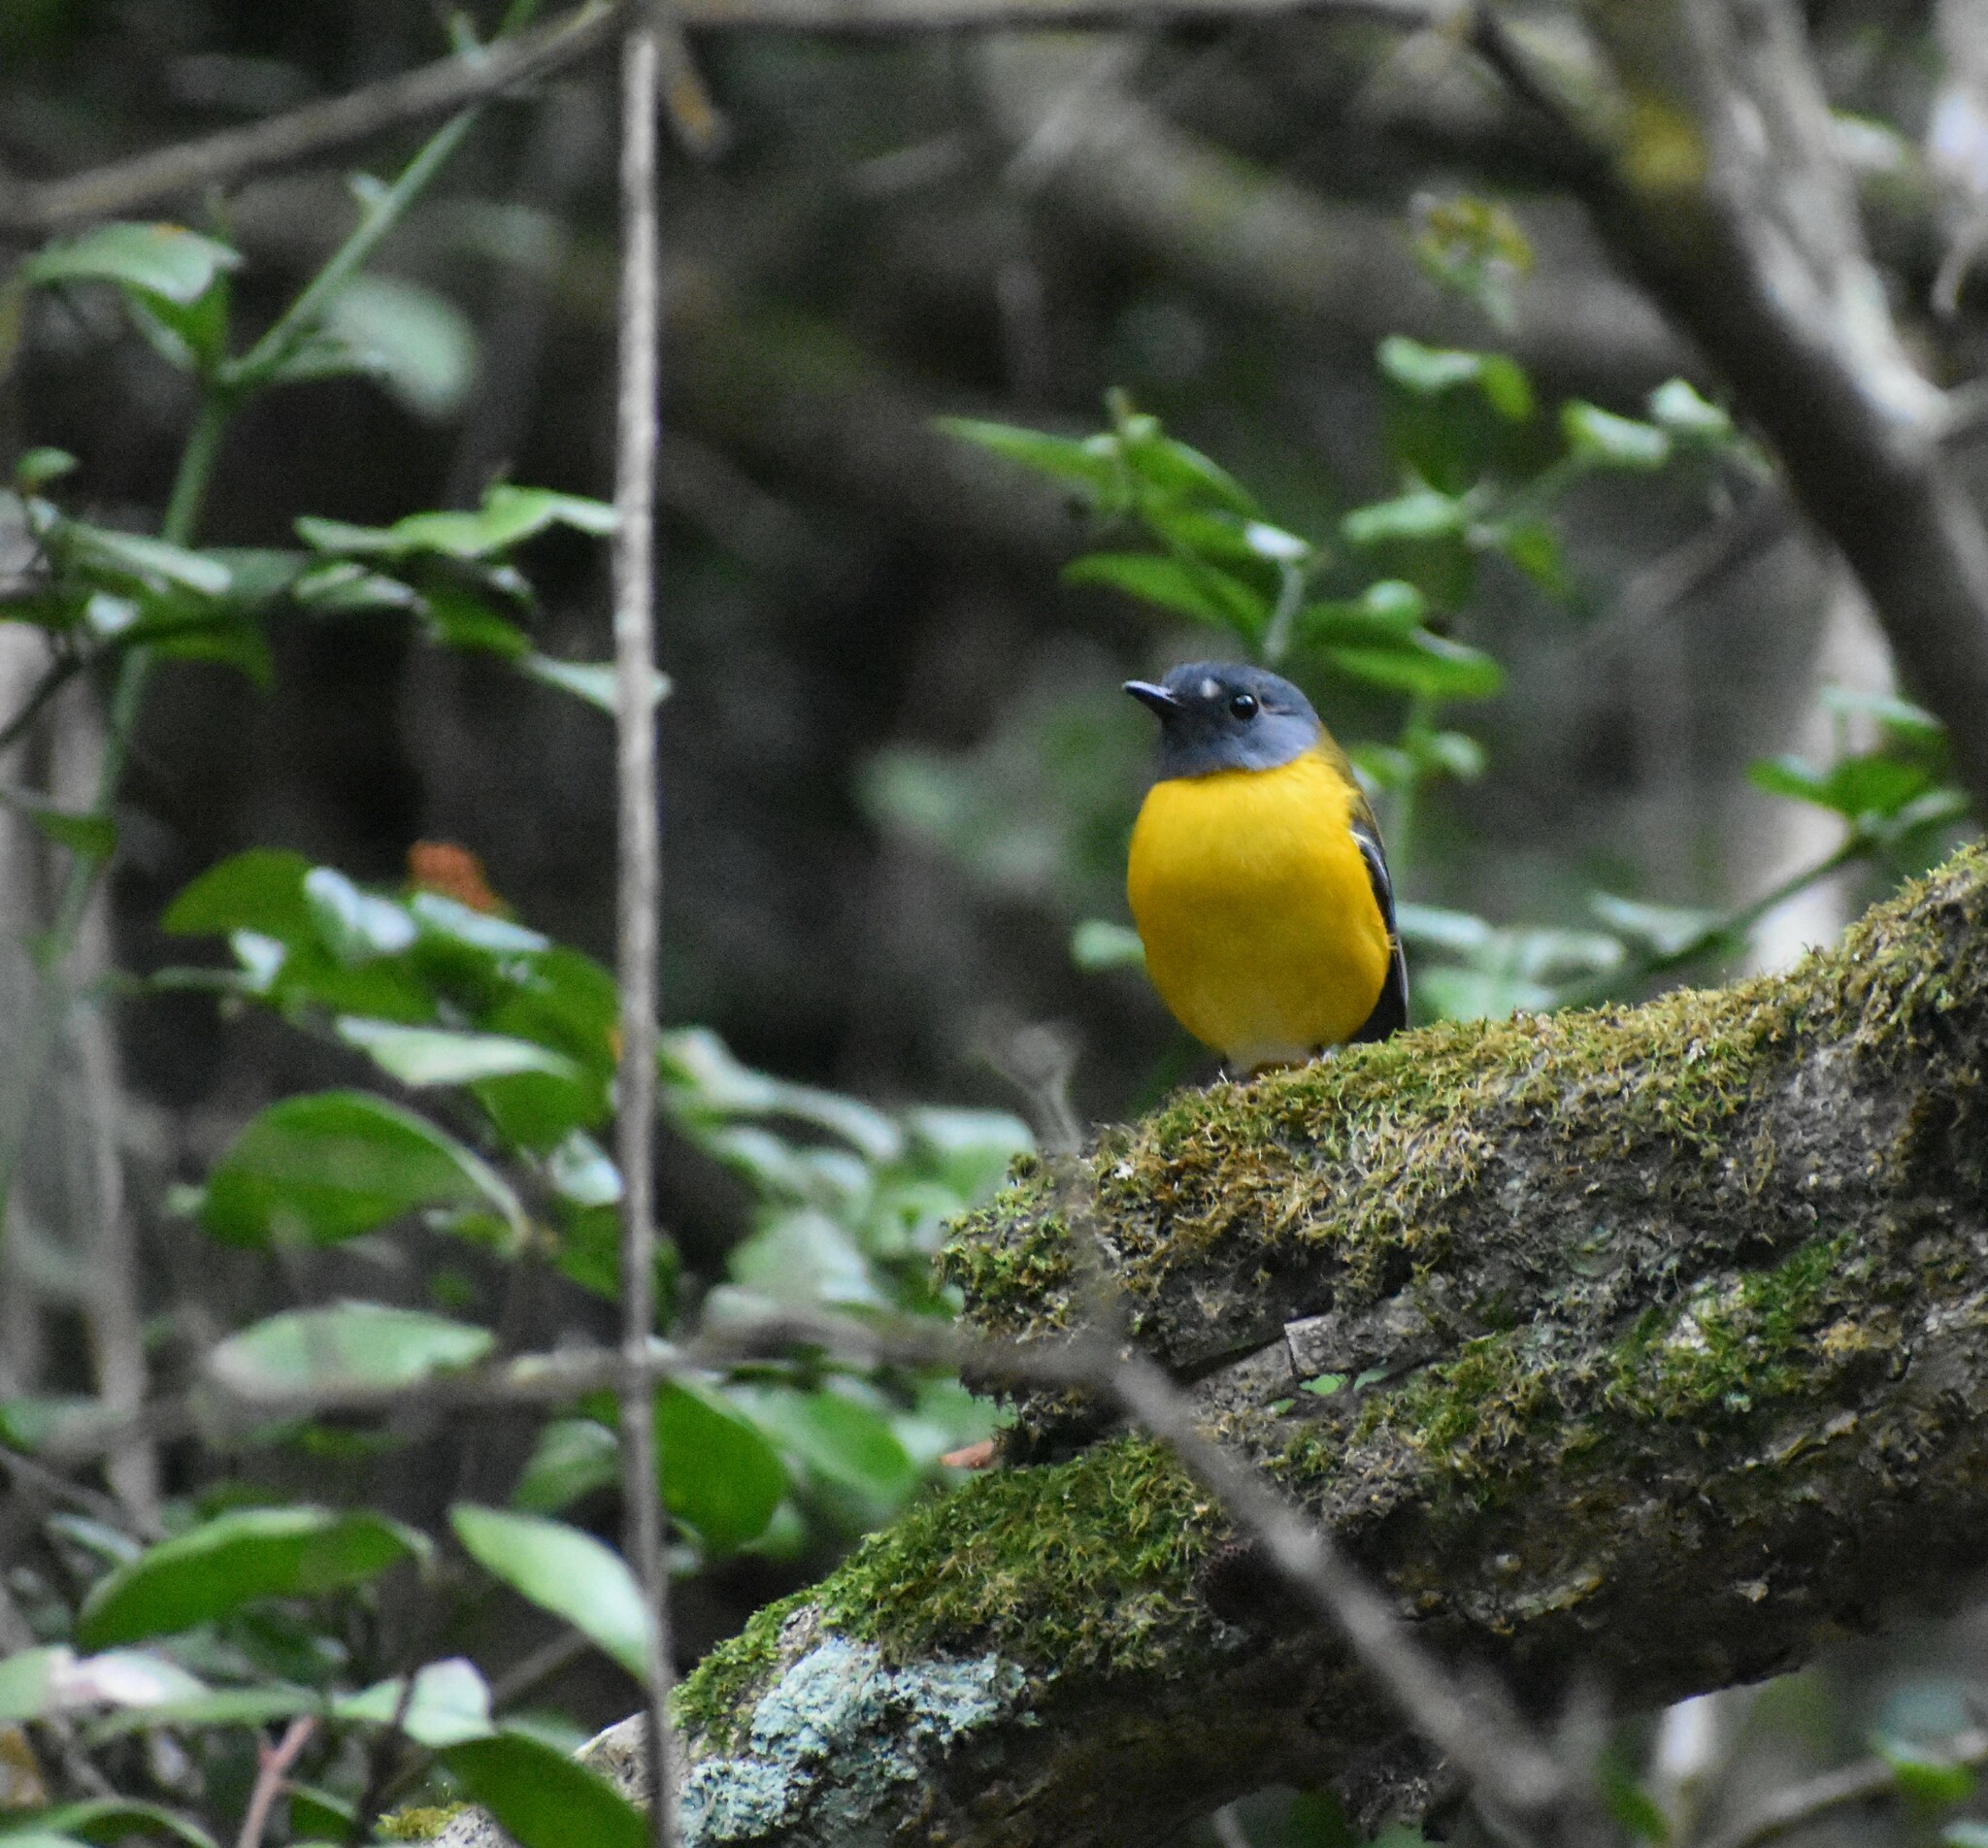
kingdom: Animalia
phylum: Chordata
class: Aves
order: Passeriformes
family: Muscicapidae
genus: Pogonocichla
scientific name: Pogonocichla stellata
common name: White-starred robin
